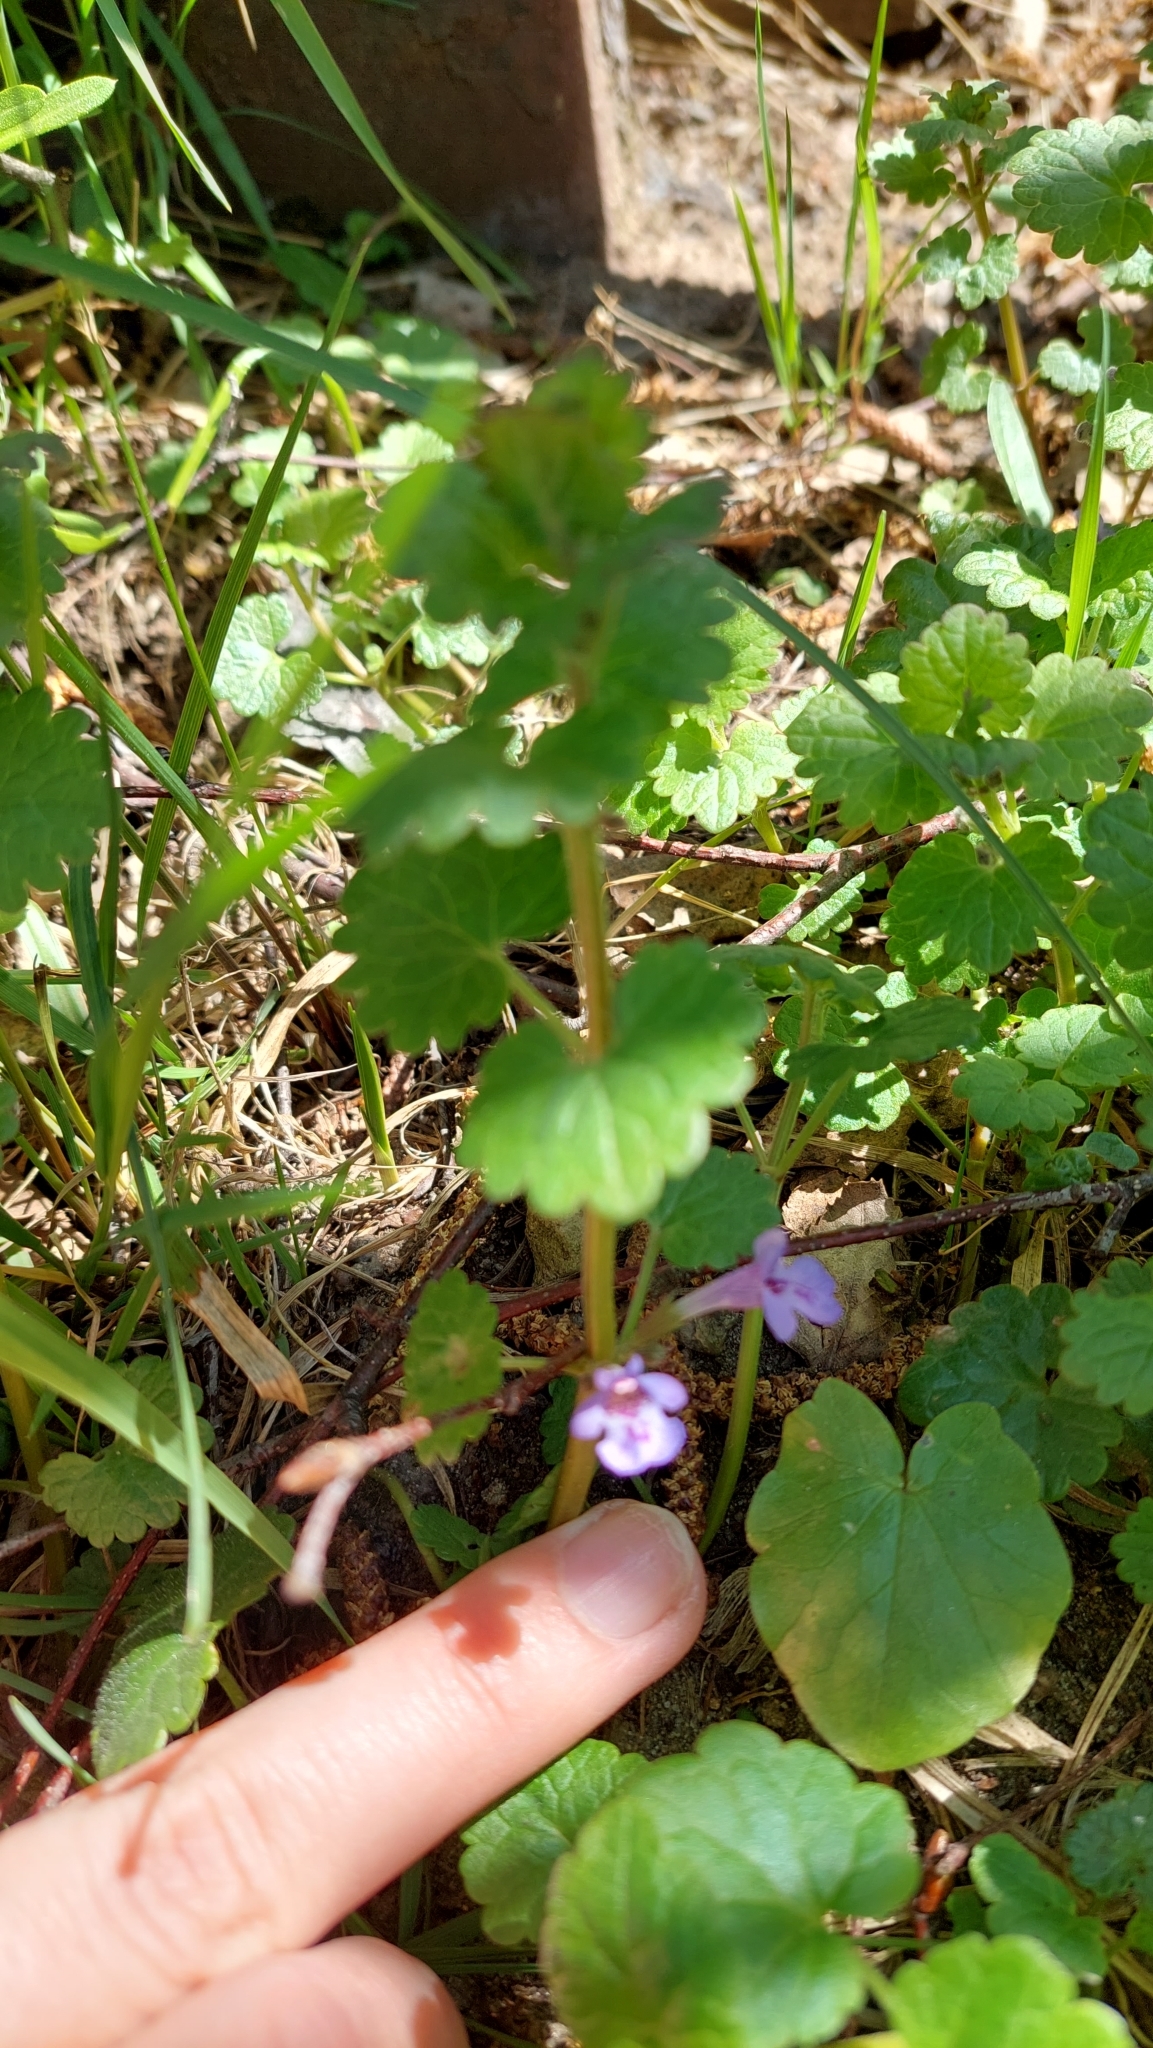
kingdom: Plantae
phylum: Tracheophyta
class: Magnoliopsida
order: Lamiales
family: Lamiaceae
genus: Glechoma
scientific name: Glechoma hederacea
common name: Ground ivy
